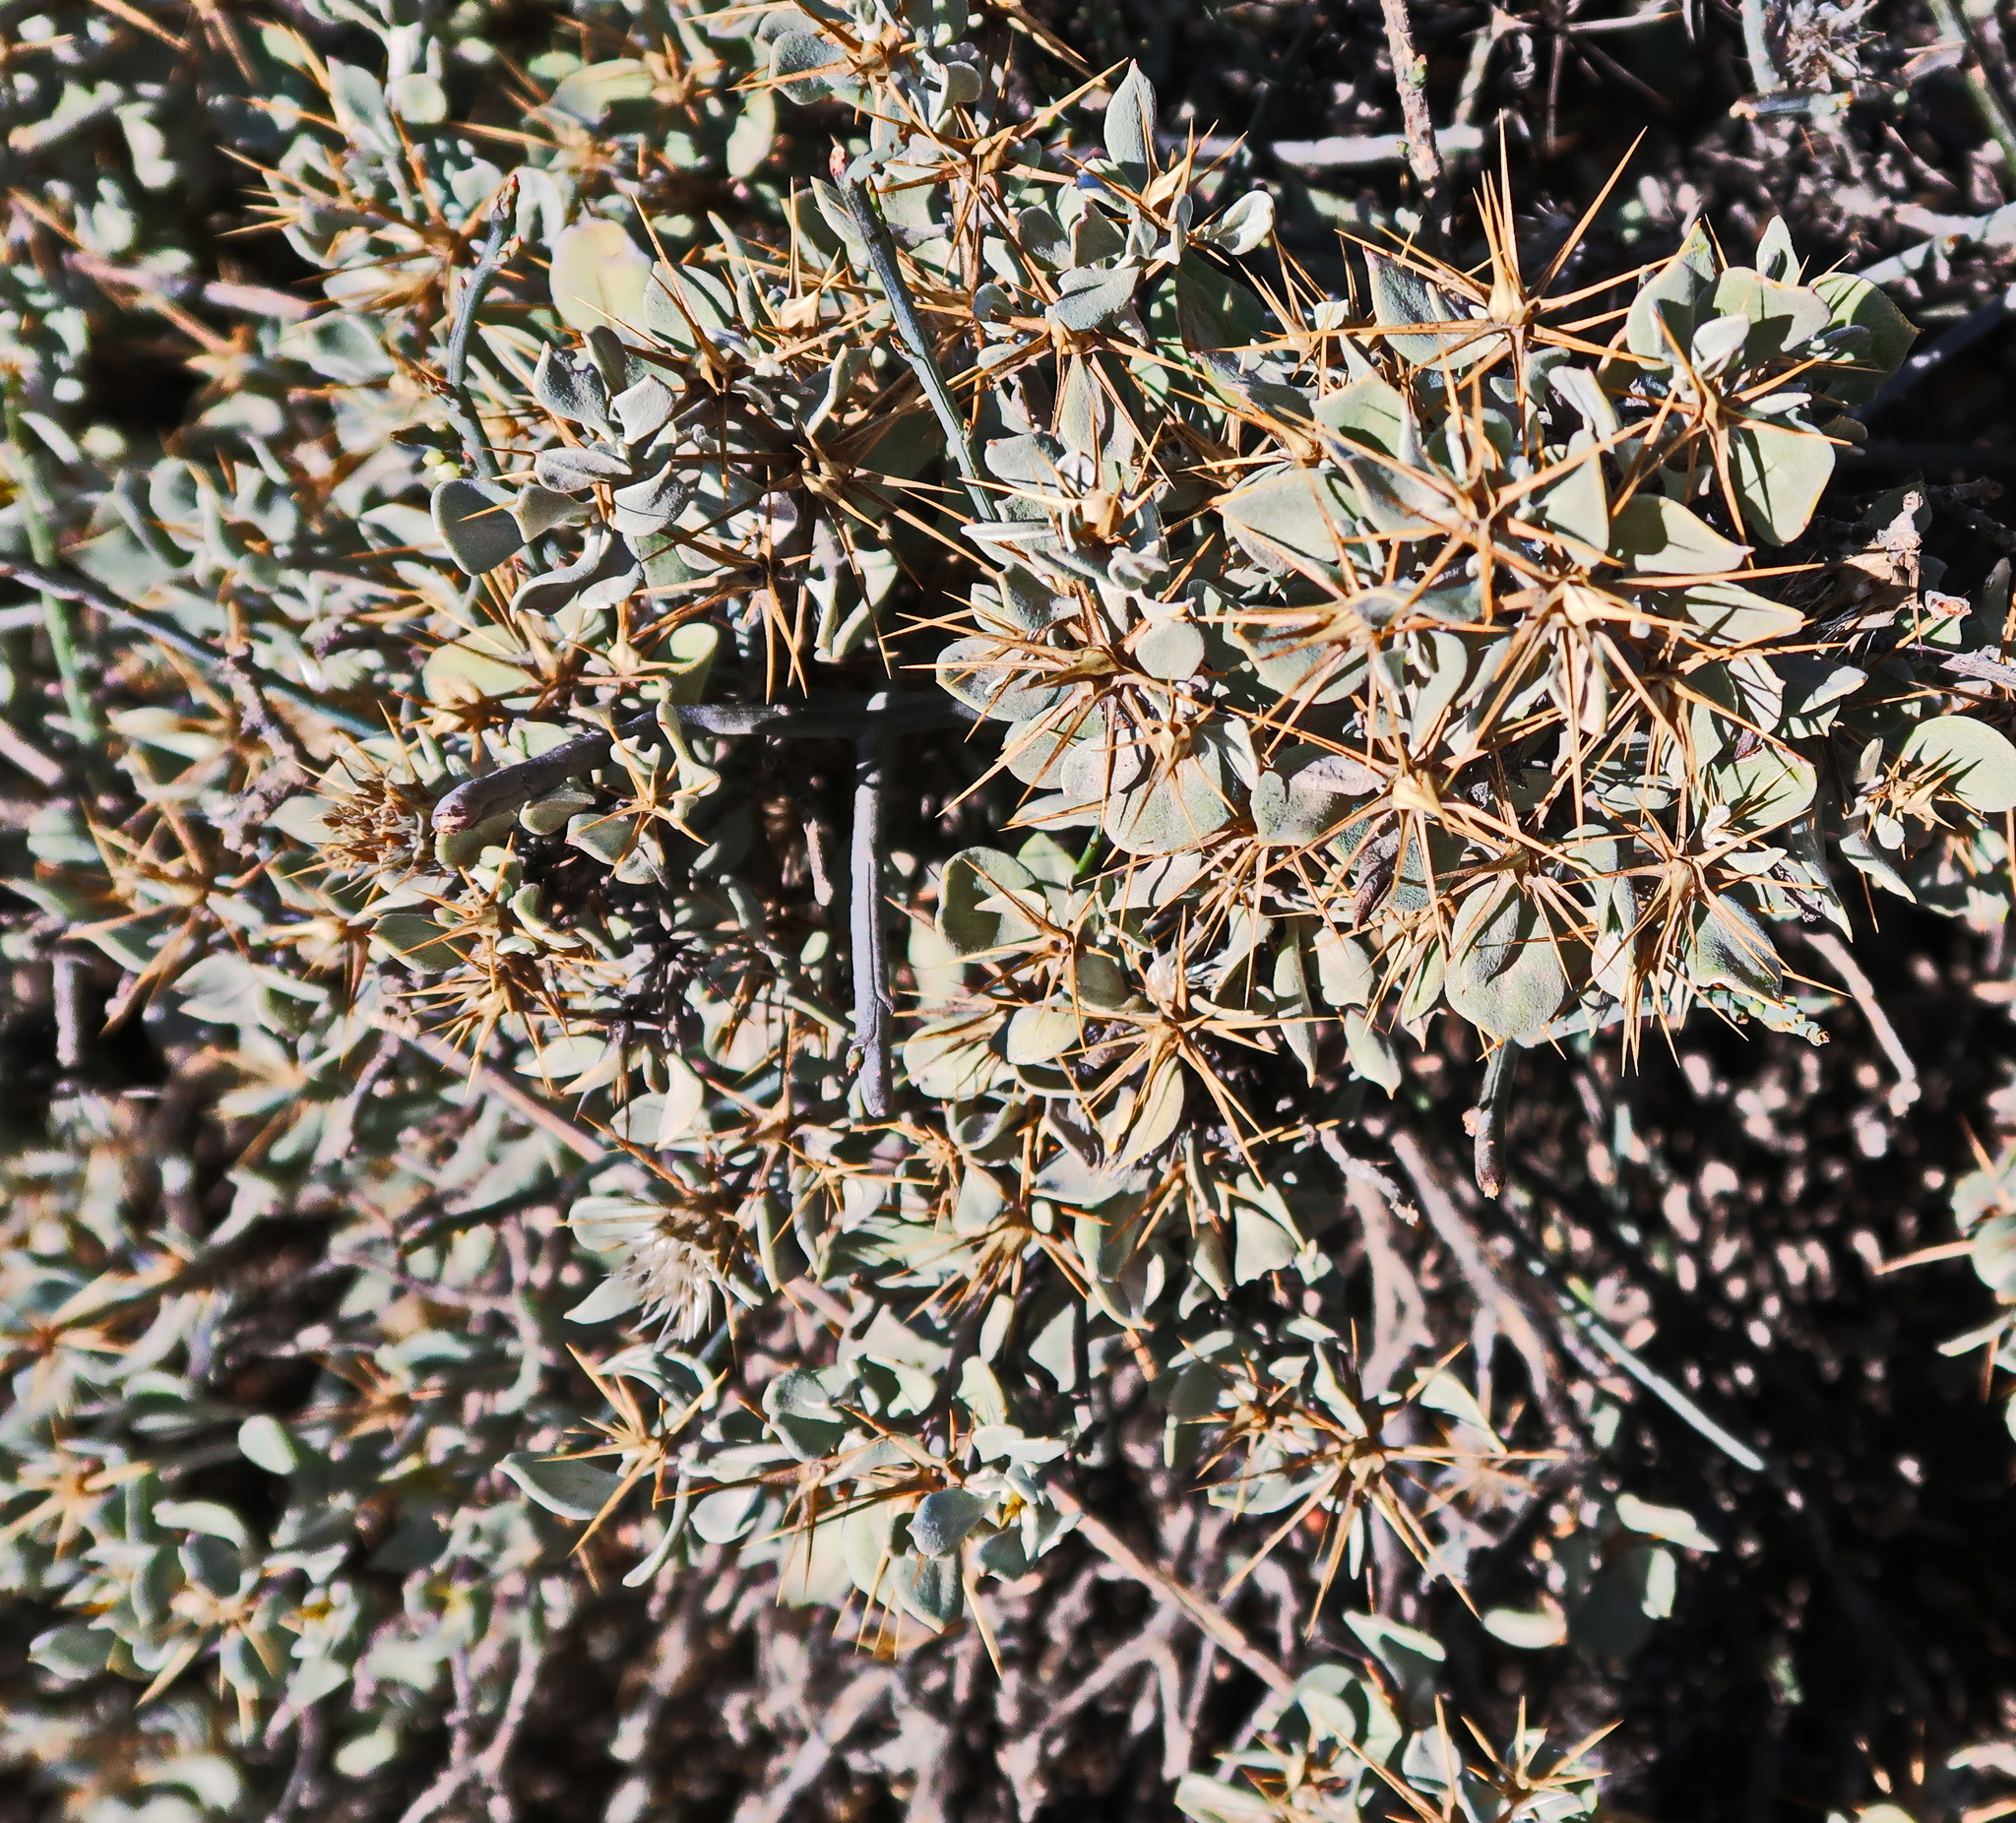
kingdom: Plantae
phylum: Tracheophyta
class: Magnoliopsida
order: Asterales
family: Asteraceae
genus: Macledium
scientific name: Macledium spinosum
